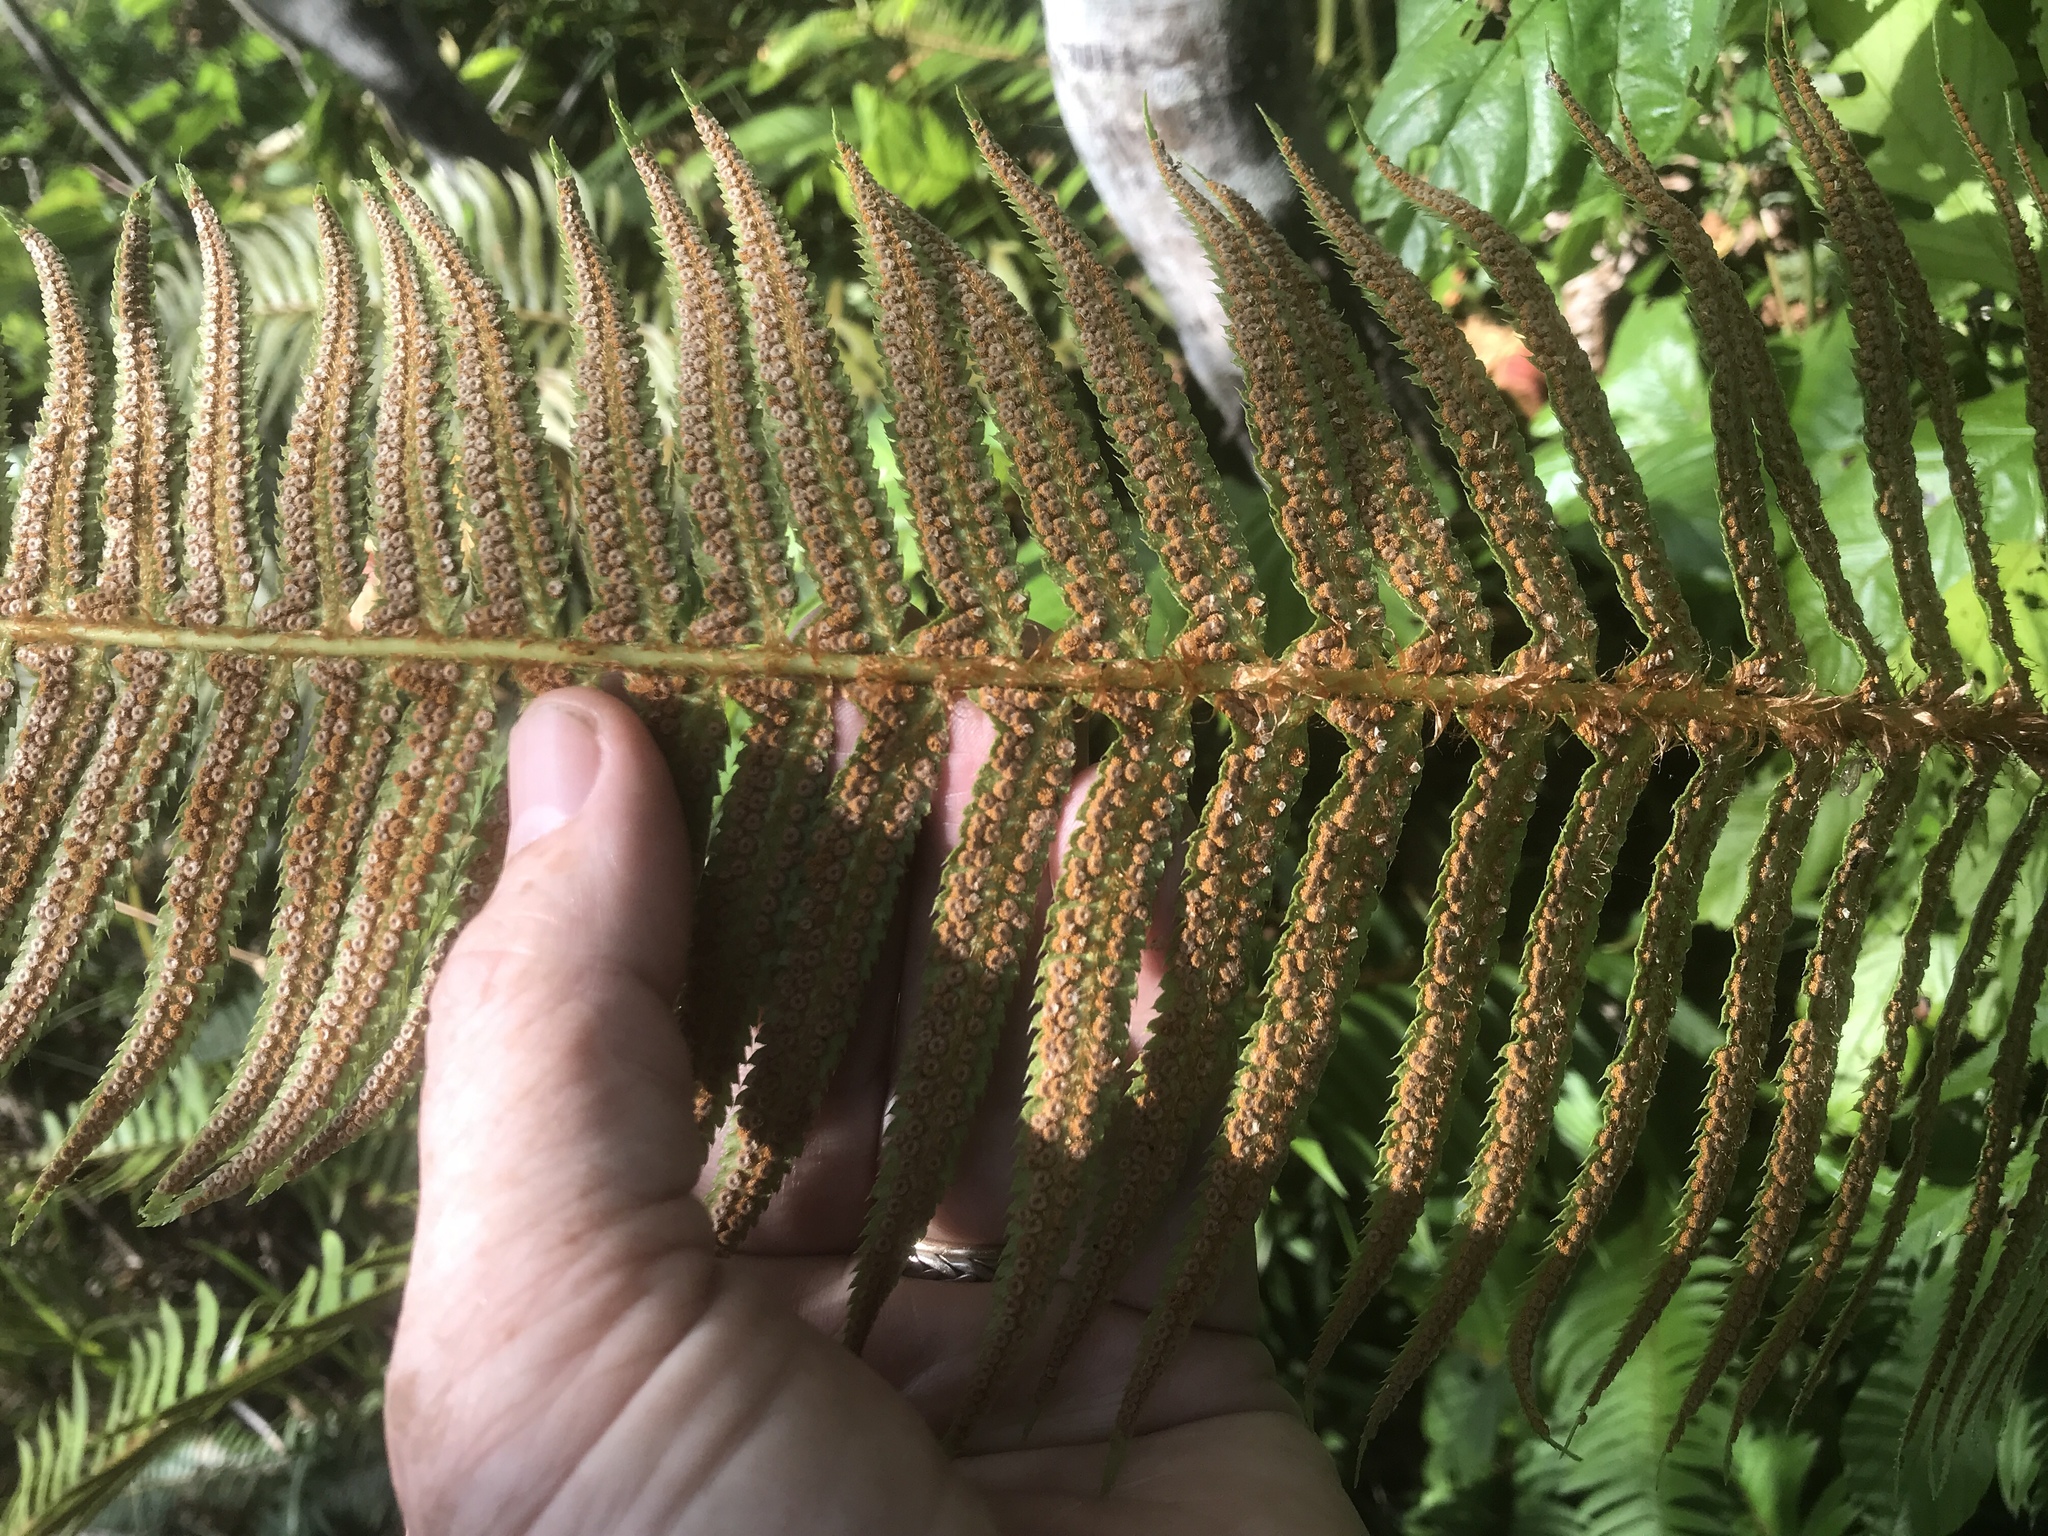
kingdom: Plantae
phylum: Tracheophyta
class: Polypodiopsida
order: Polypodiales
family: Dryopteridaceae
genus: Polystichum
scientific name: Polystichum munitum
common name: Western sword-fern
